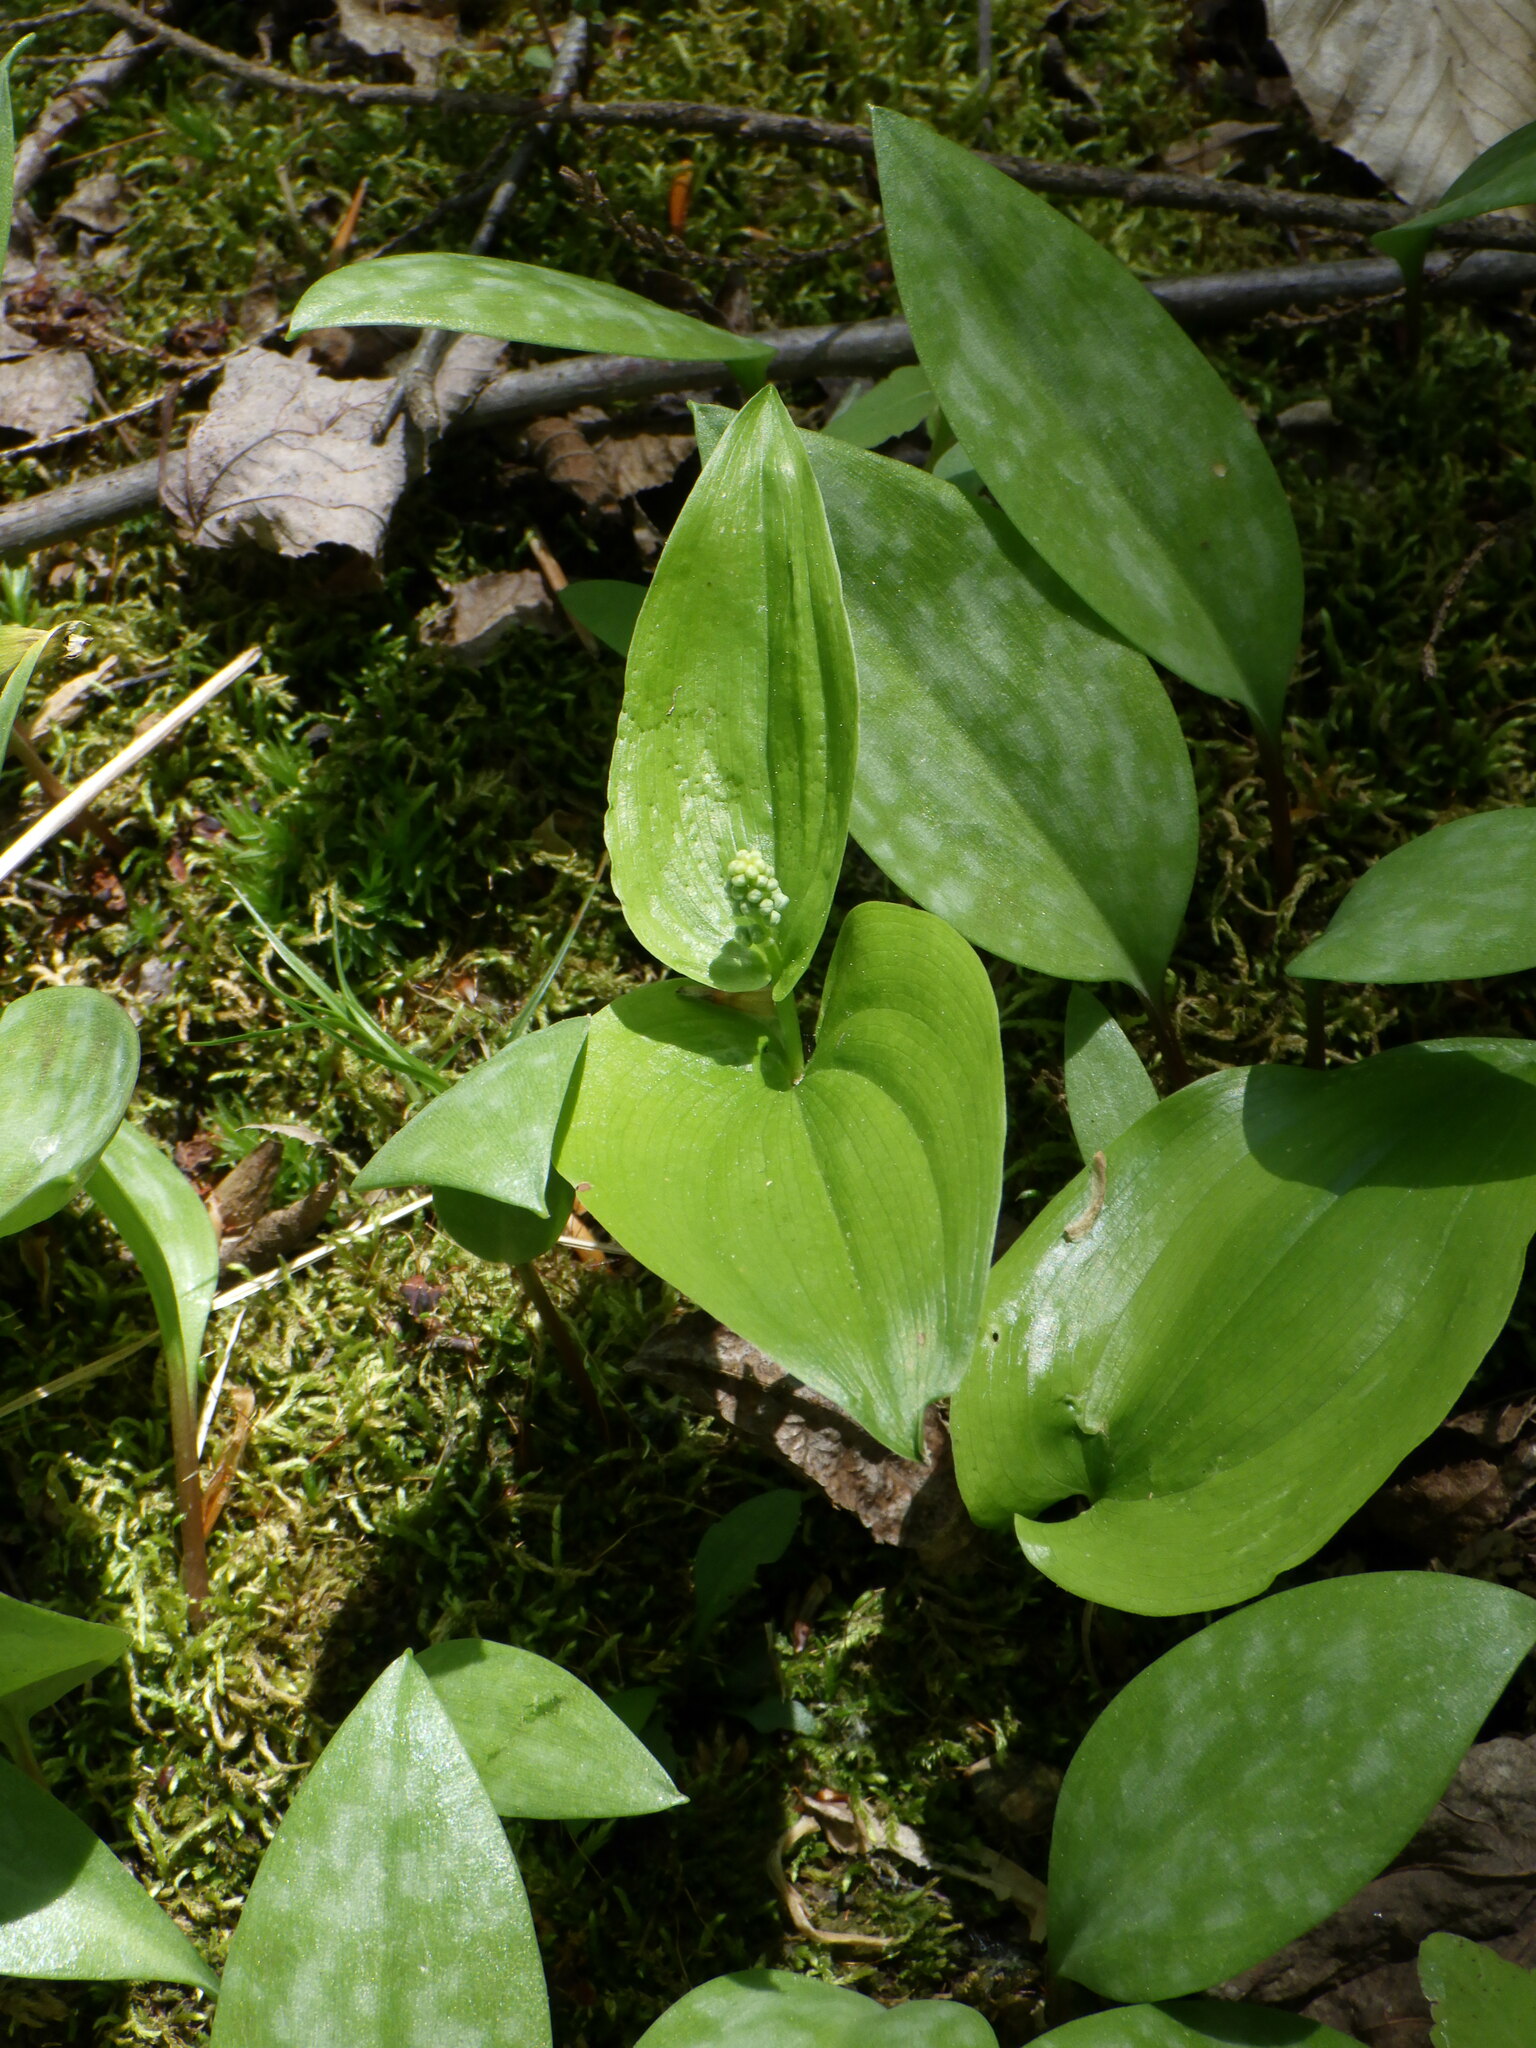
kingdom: Plantae
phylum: Tracheophyta
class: Liliopsida
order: Asparagales
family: Asparagaceae
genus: Maianthemum
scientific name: Maianthemum canadense
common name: False lily-of-the-valley
